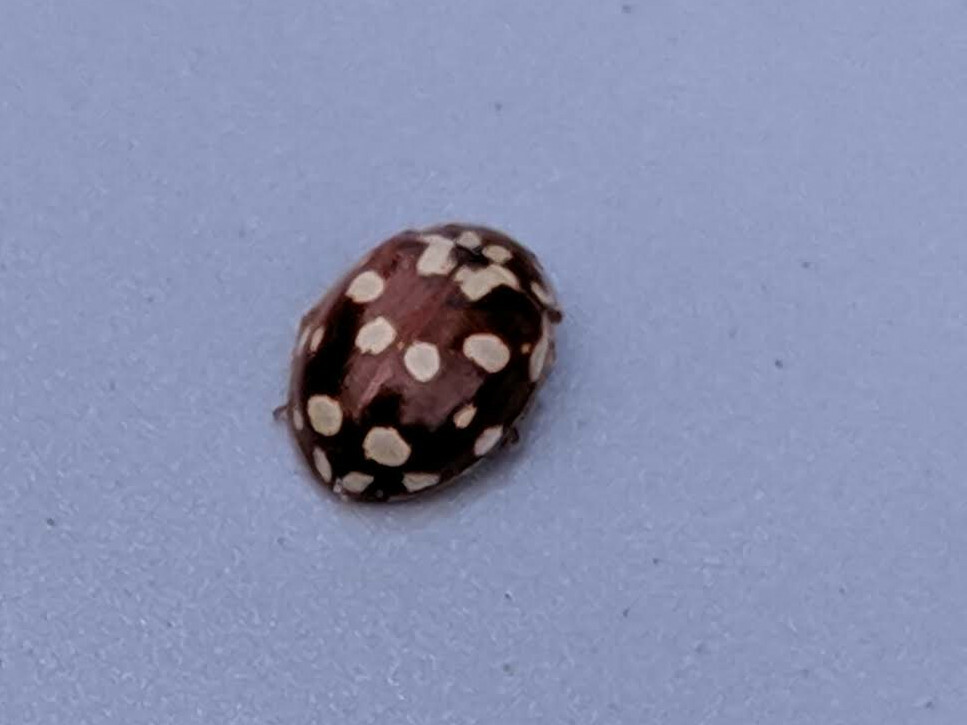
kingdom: Animalia
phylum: Arthropoda
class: Insecta
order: Coleoptera
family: Coccinellidae
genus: Myrrha
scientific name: Myrrha octodecimguttata
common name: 18-spot ladybird
